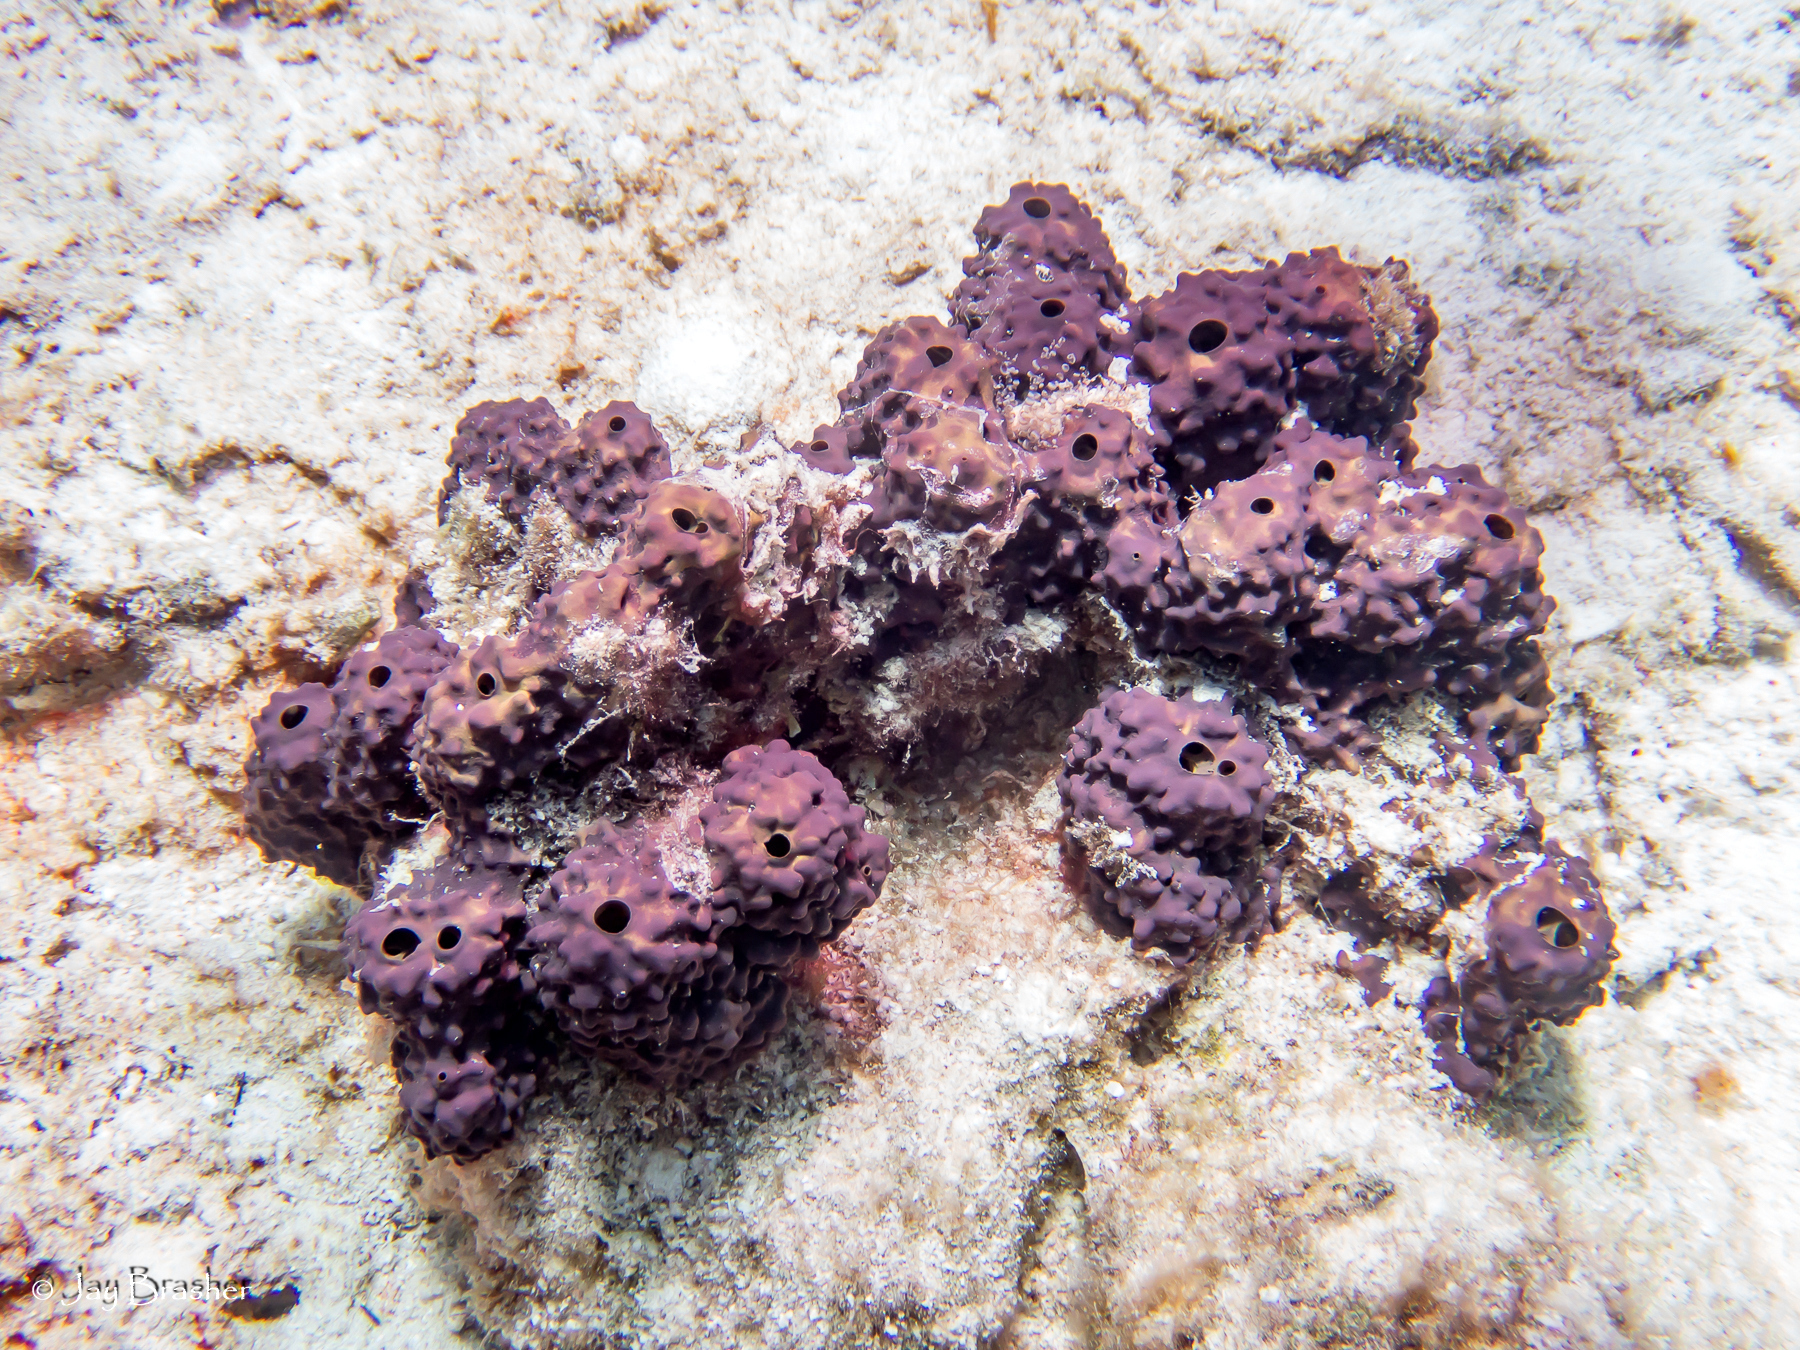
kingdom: Animalia
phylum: Porifera
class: Demospongiae
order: Verongiida
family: Aplysinidae
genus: Aiolochroia
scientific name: Aiolochroia crassa
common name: Branching tube sponge
